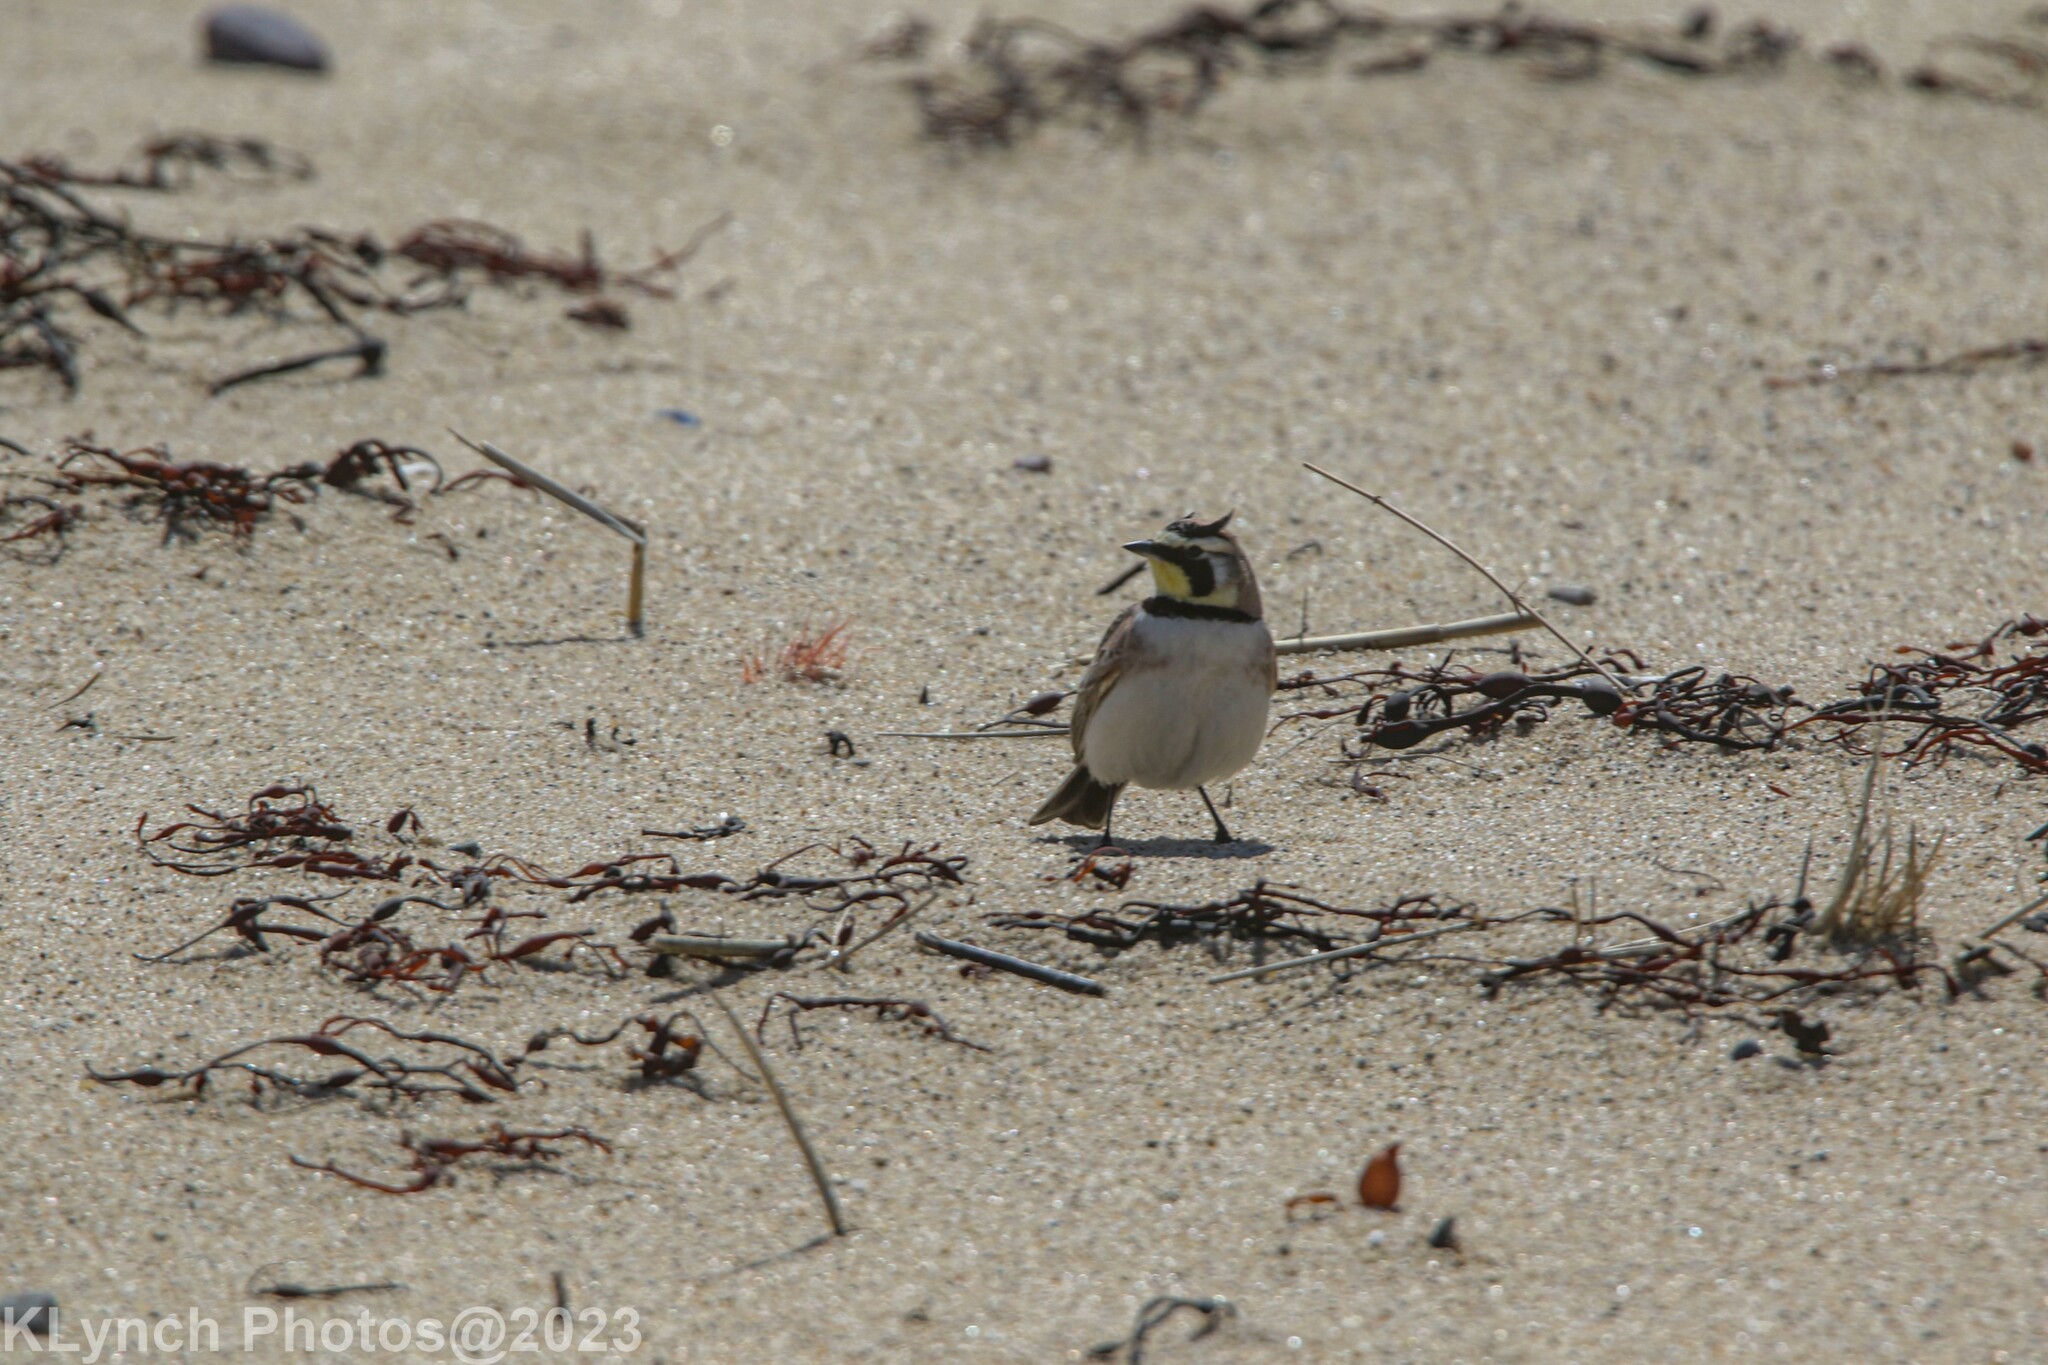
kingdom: Animalia
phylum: Chordata
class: Aves
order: Passeriformes
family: Alaudidae
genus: Eremophila
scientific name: Eremophila alpestris
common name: Horned lark
